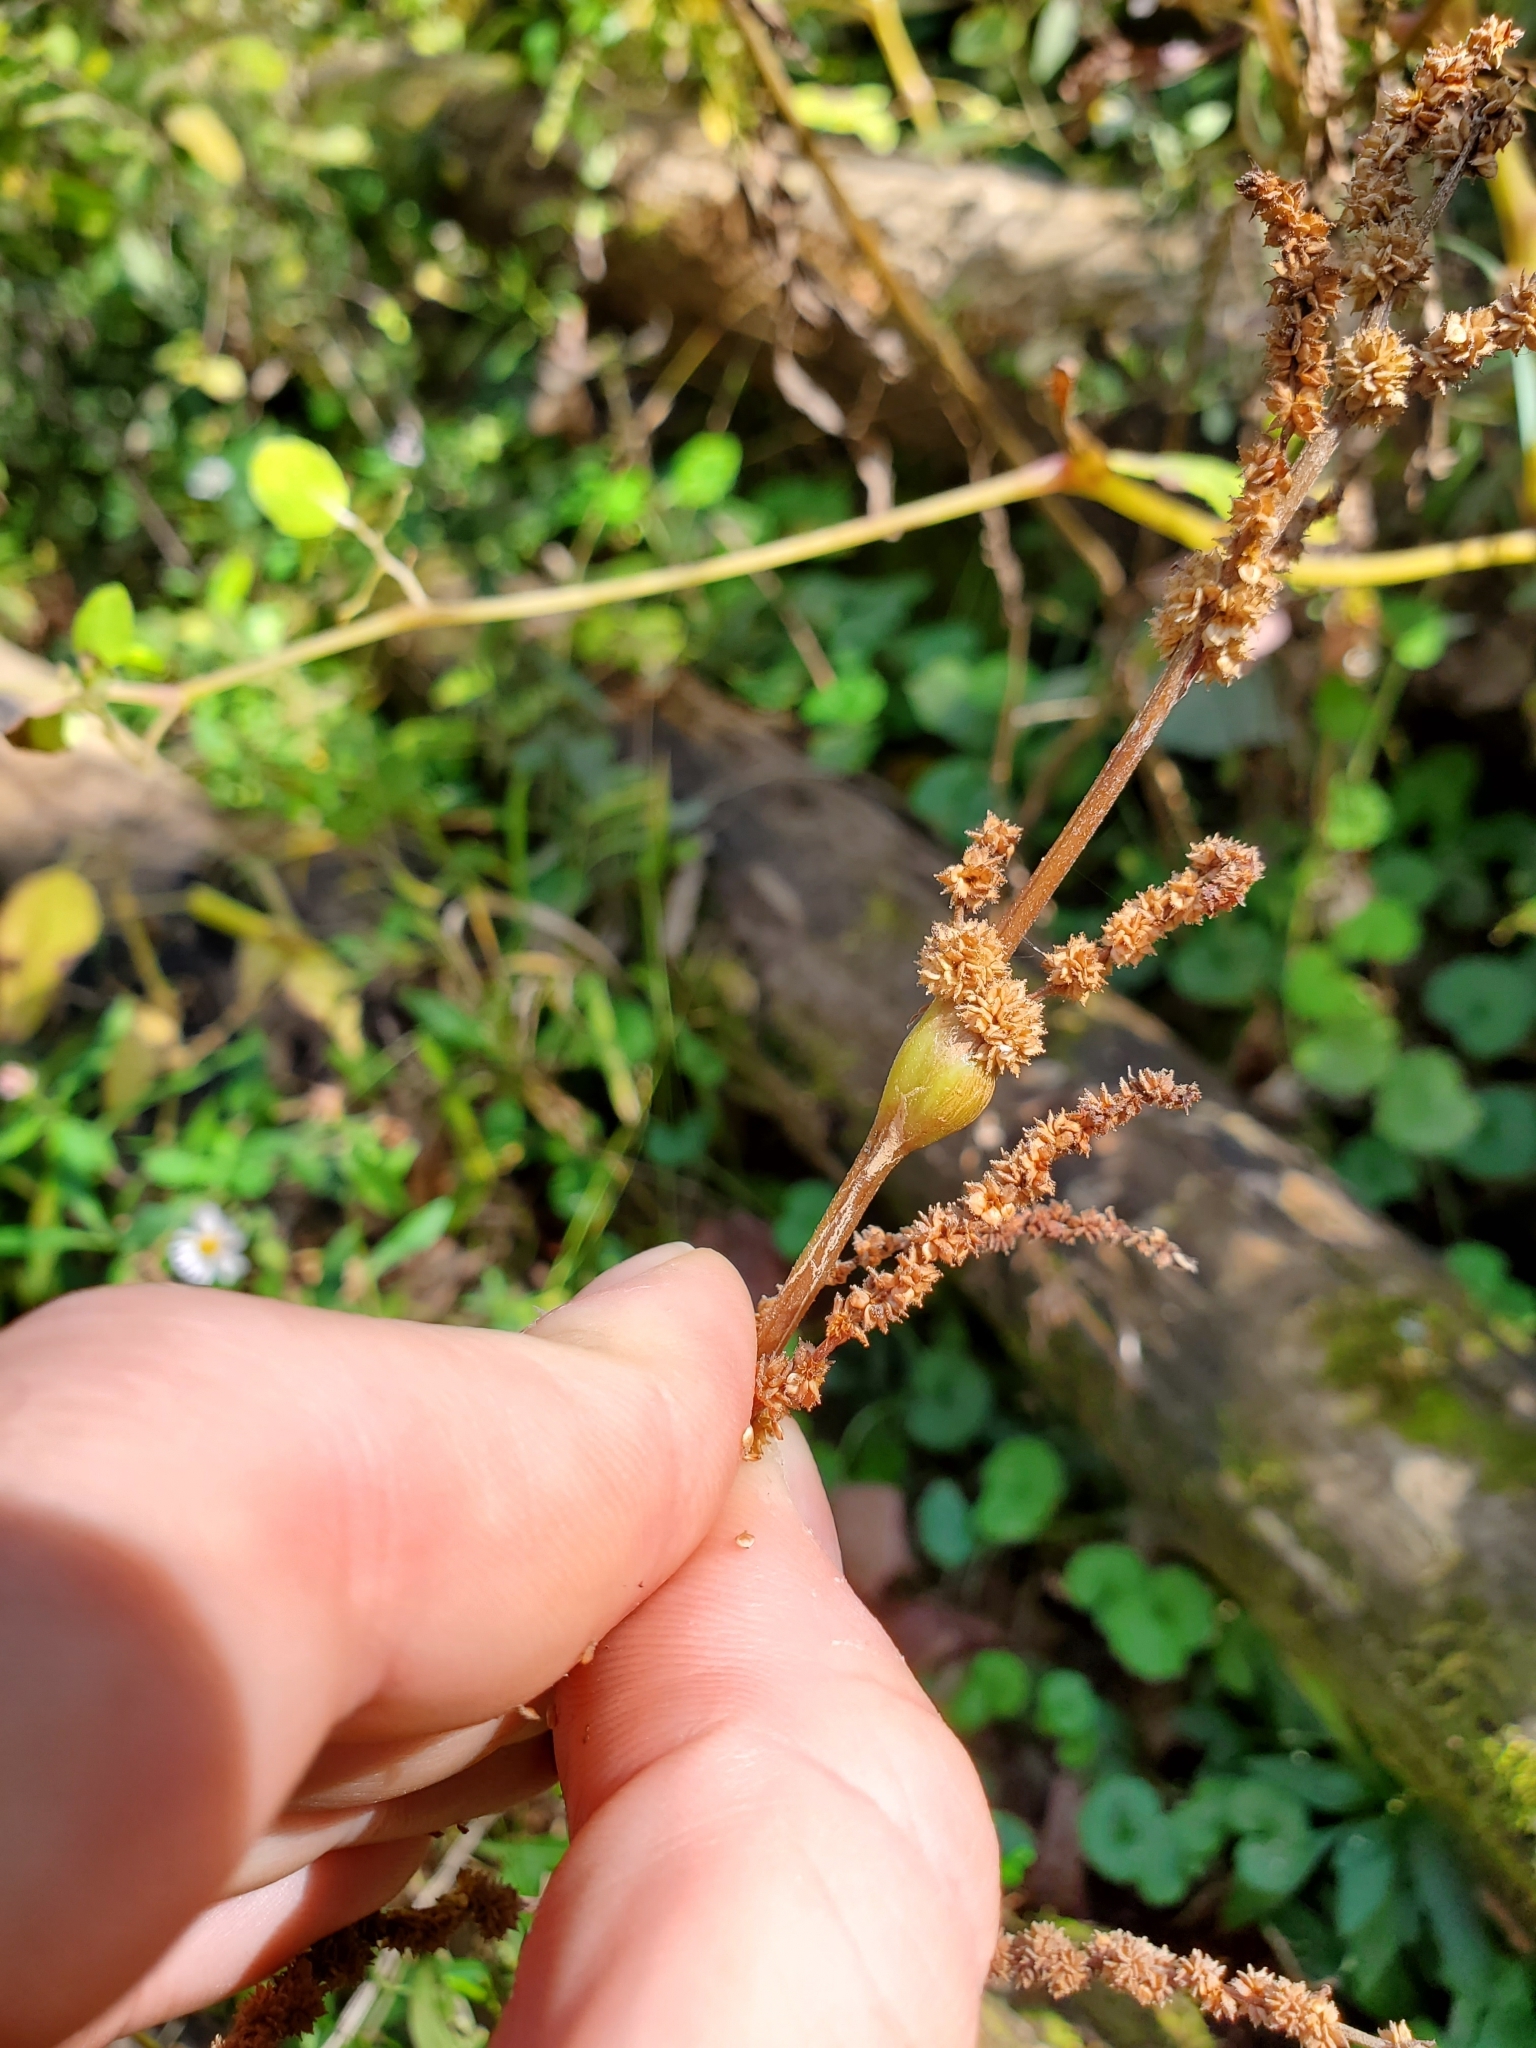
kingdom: Animalia
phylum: Arthropoda
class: Insecta
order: Diptera
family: Cecidomyiidae
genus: Neolasioptera
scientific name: Neolasioptera boehmeriae
